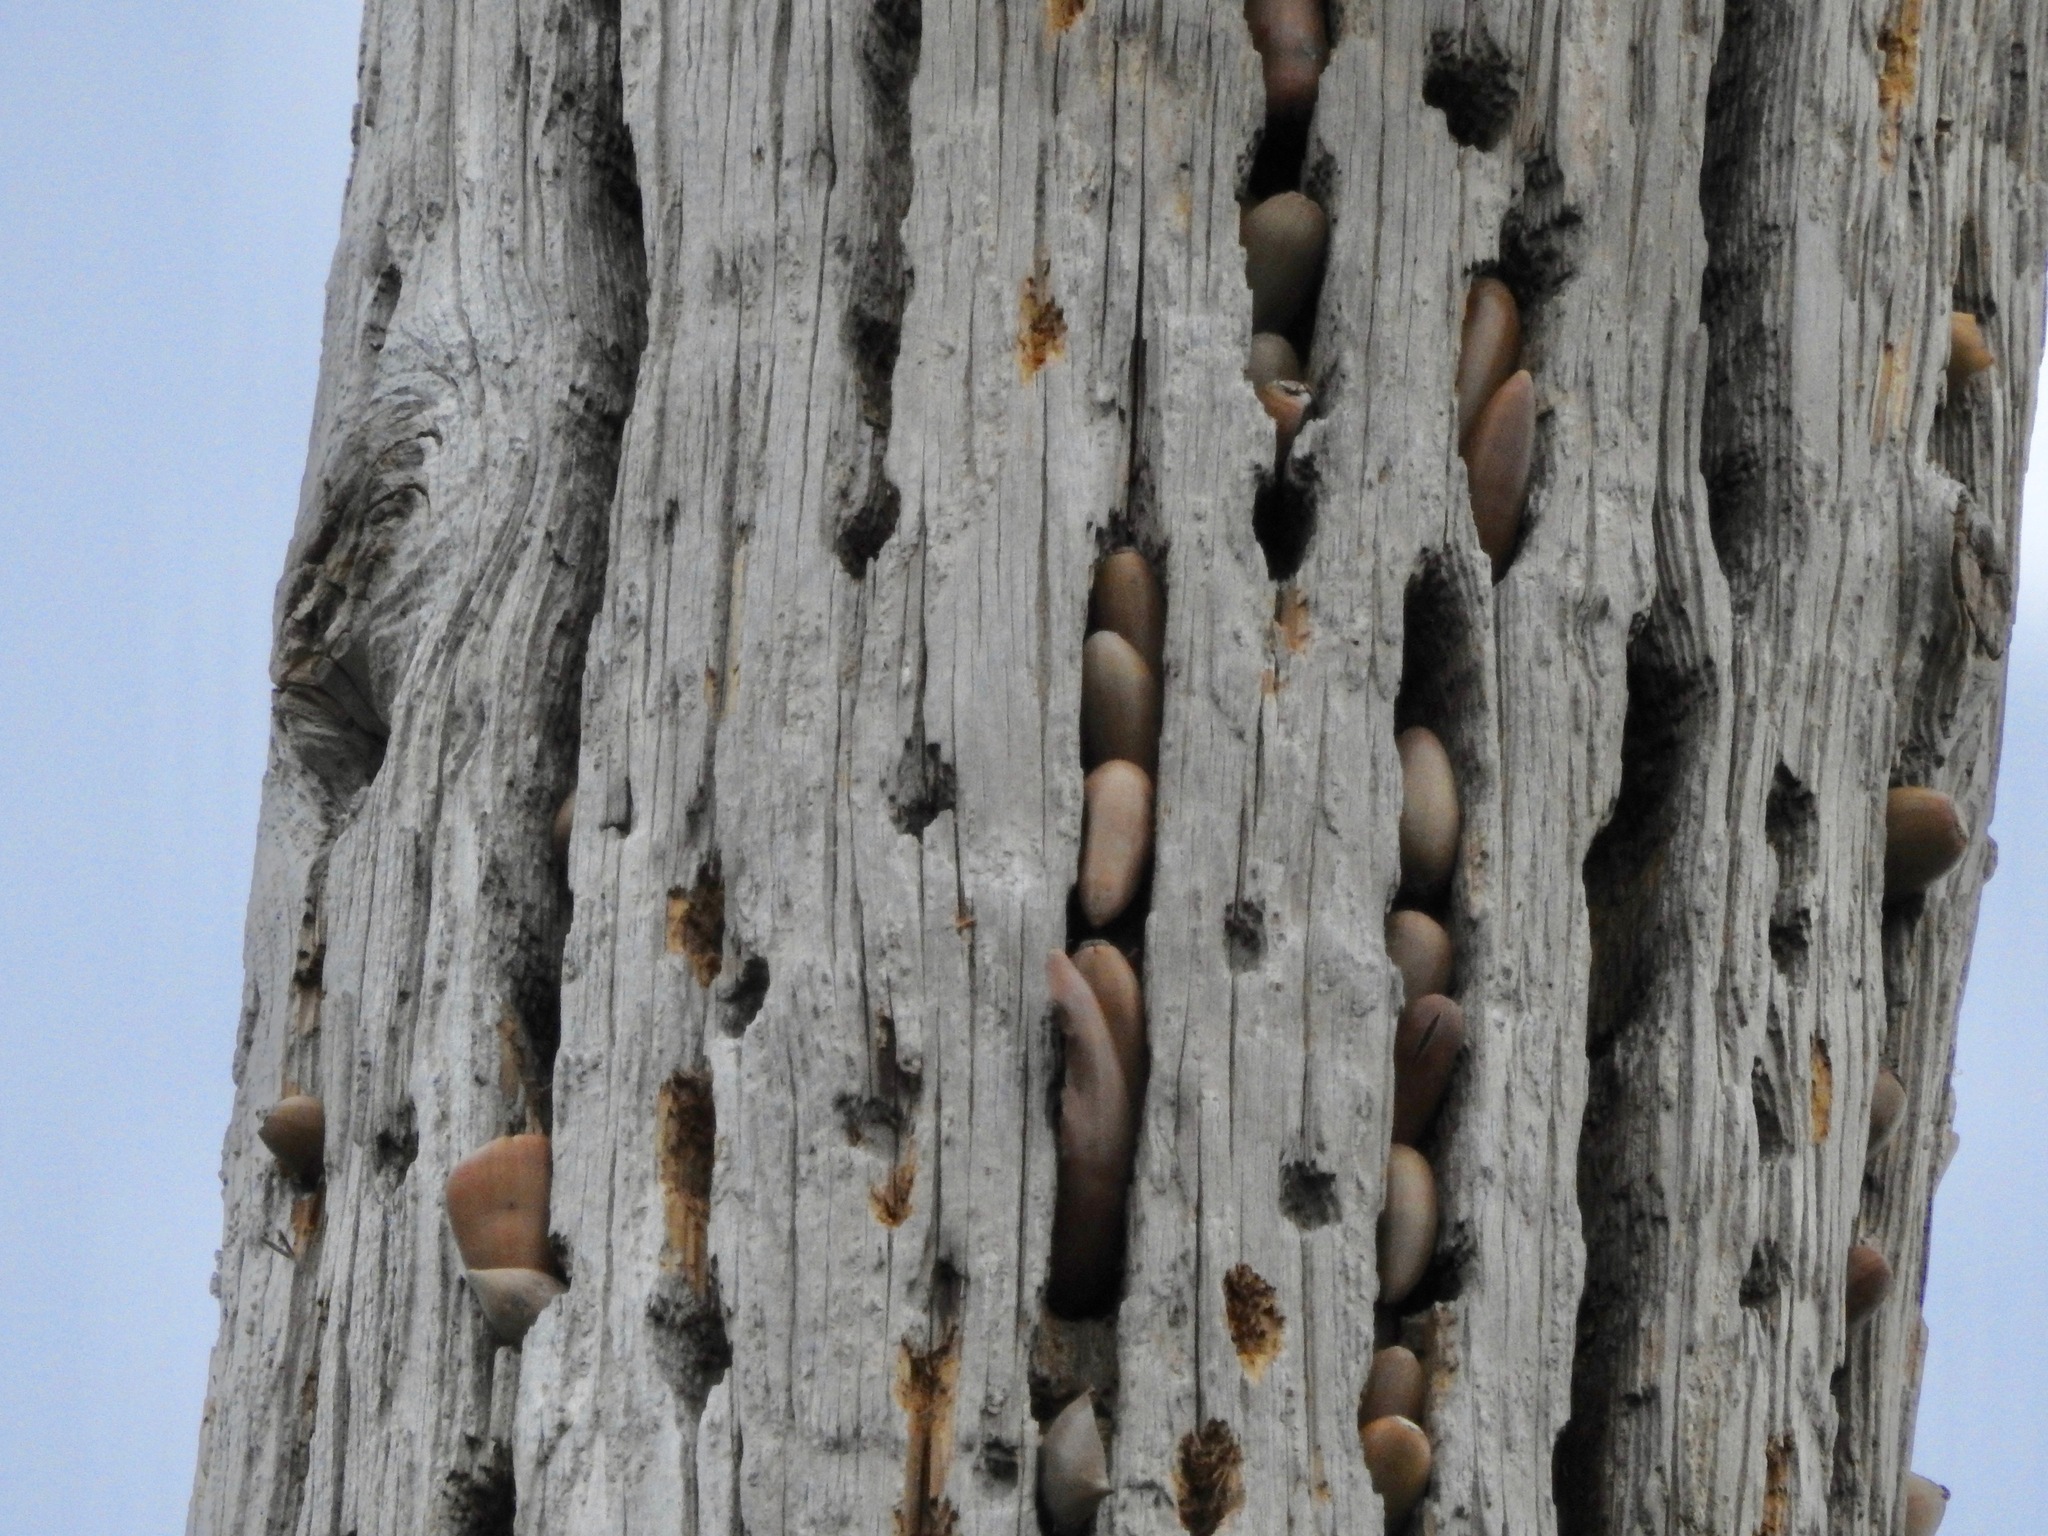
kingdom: Animalia
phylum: Chordata
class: Aves
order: Piciformes
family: Picidae
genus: Melanerpes
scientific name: Melanerpes formicivorus
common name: Acorn woodpecker
